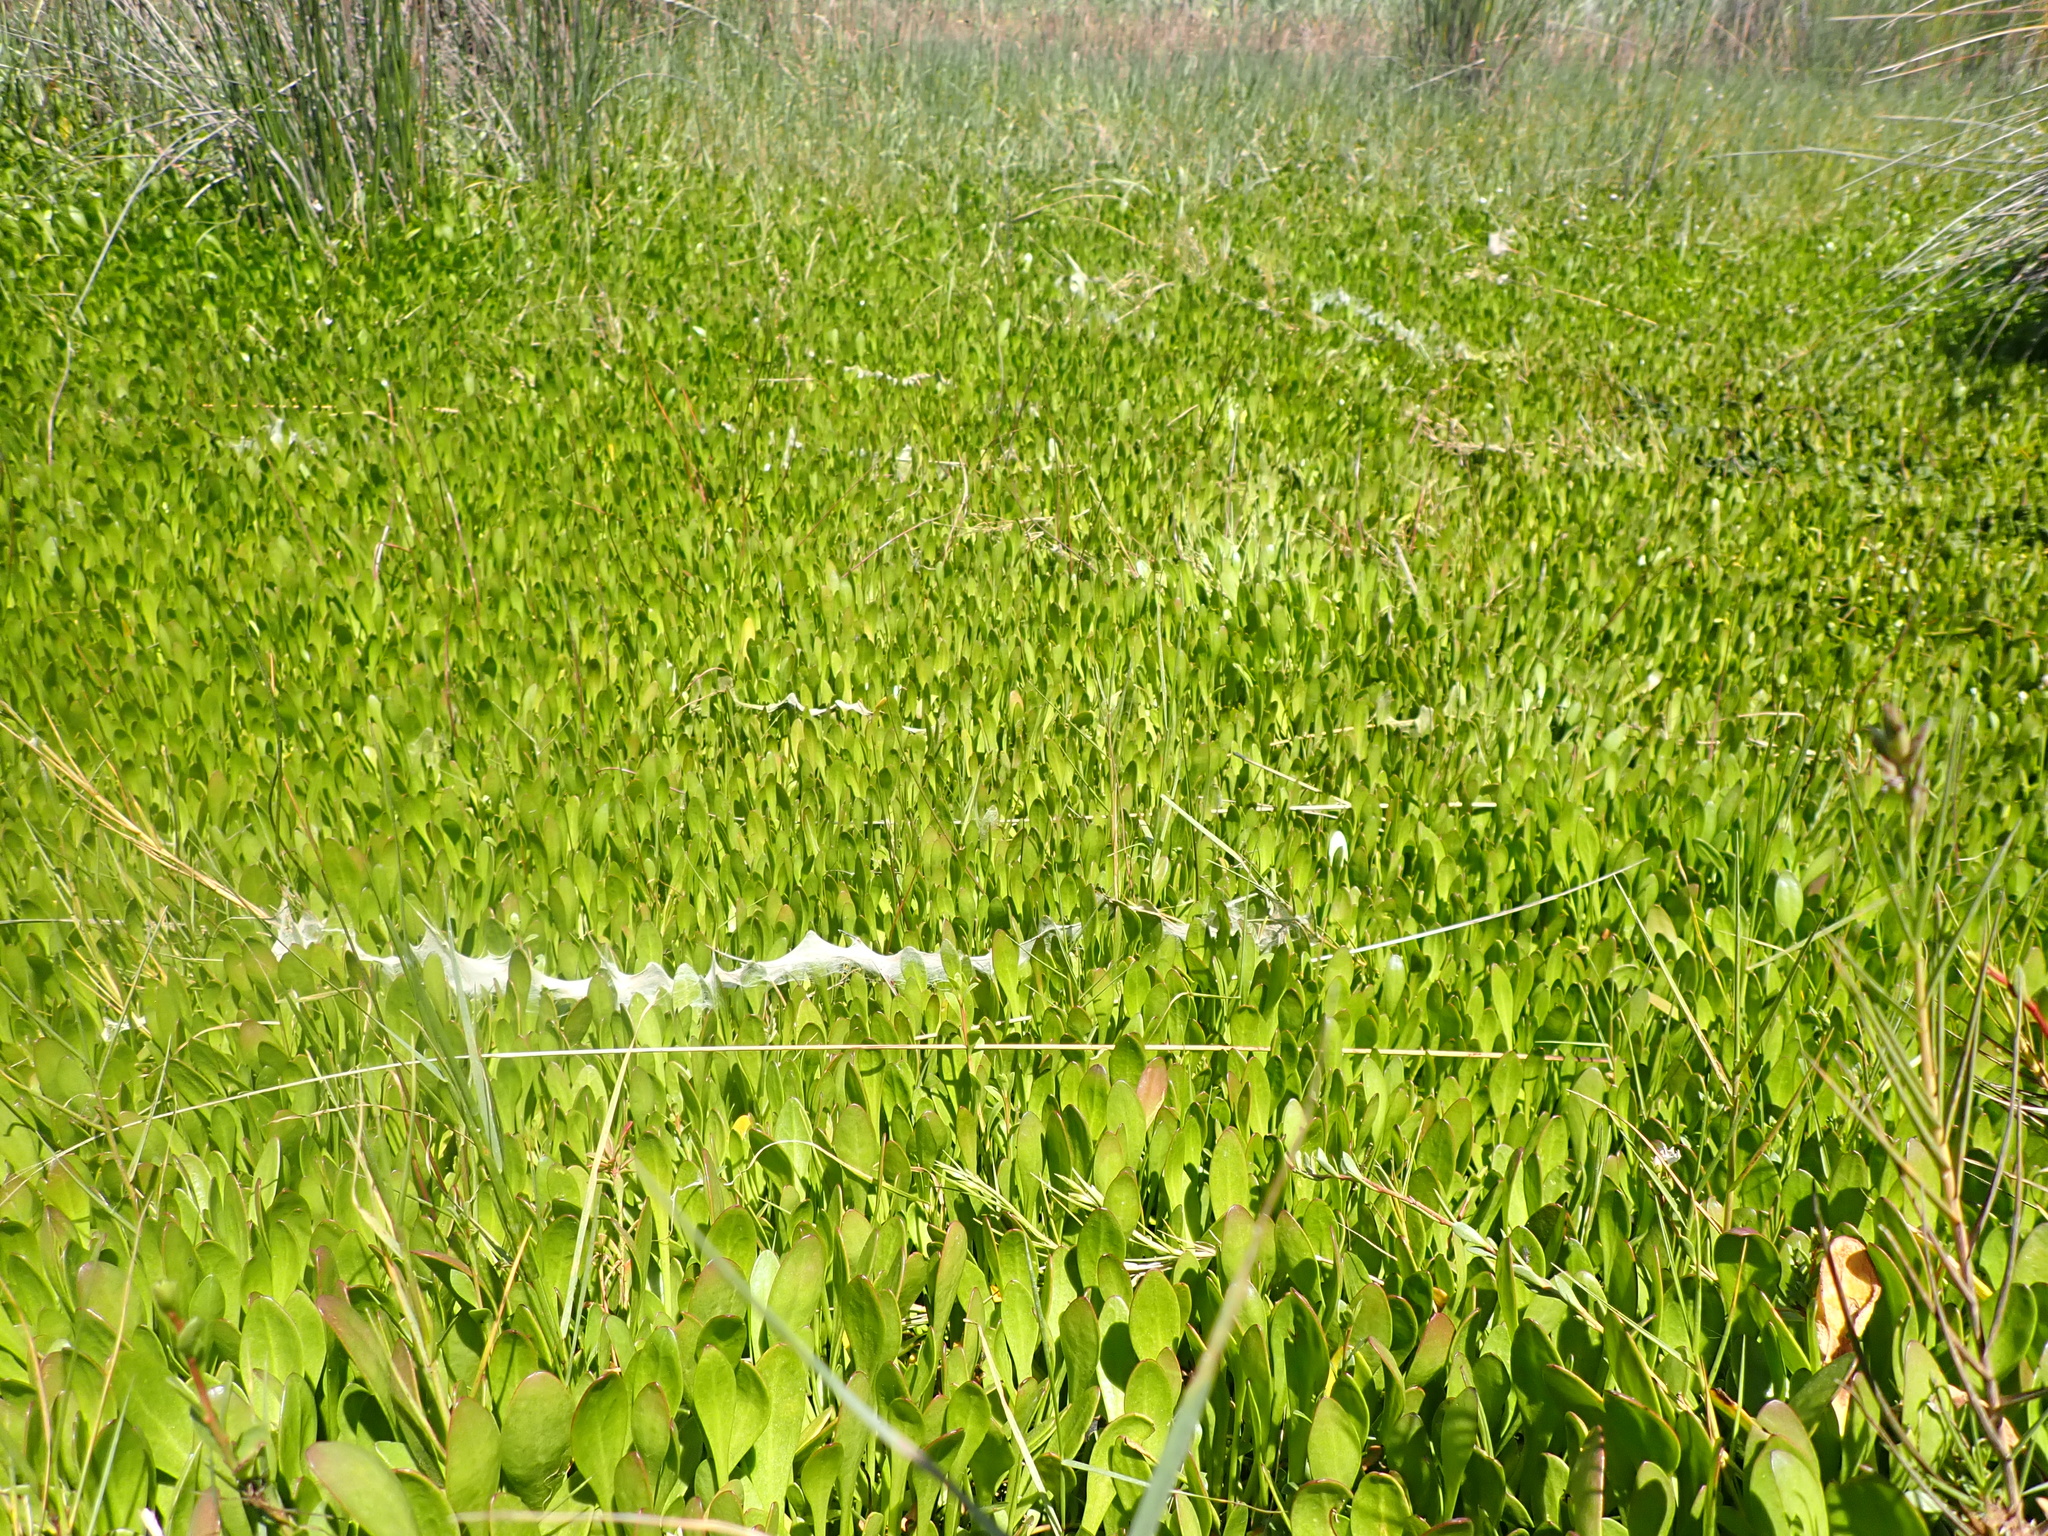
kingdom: Plantae
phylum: Tracheophyta
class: Magnoliopsida
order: Asterales
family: Goodeniaceae
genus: Goodenia
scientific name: Goodenia radicans
